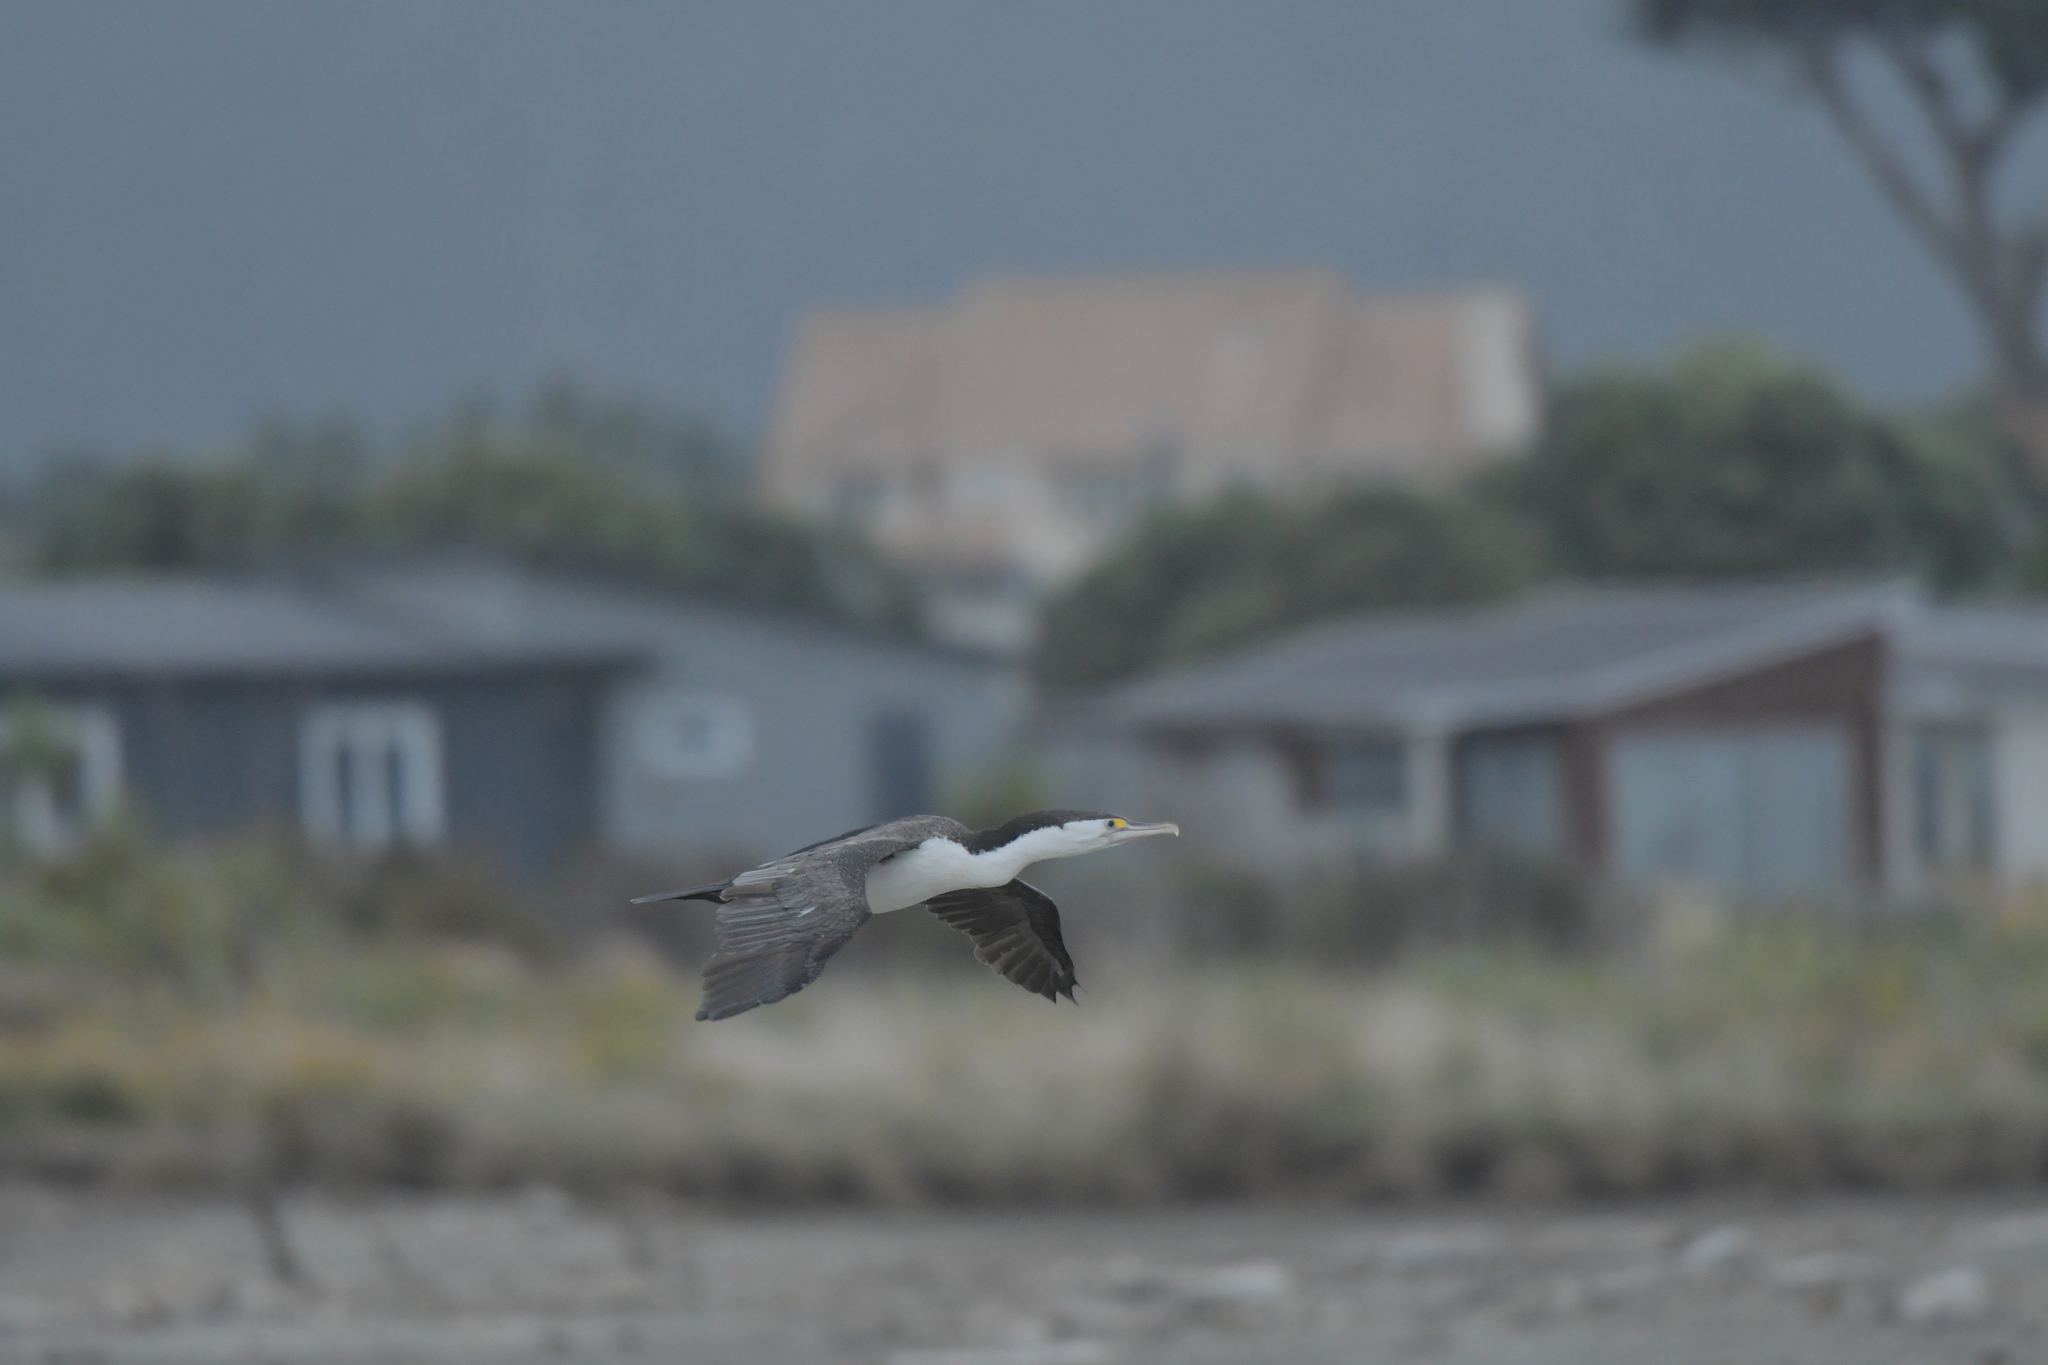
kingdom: Animalia
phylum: Chordata
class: Aves
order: Suliformes
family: Phalacrocoracidae
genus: Phalacrocorax
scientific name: Phalacrocorax varius
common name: Pied cormorant
